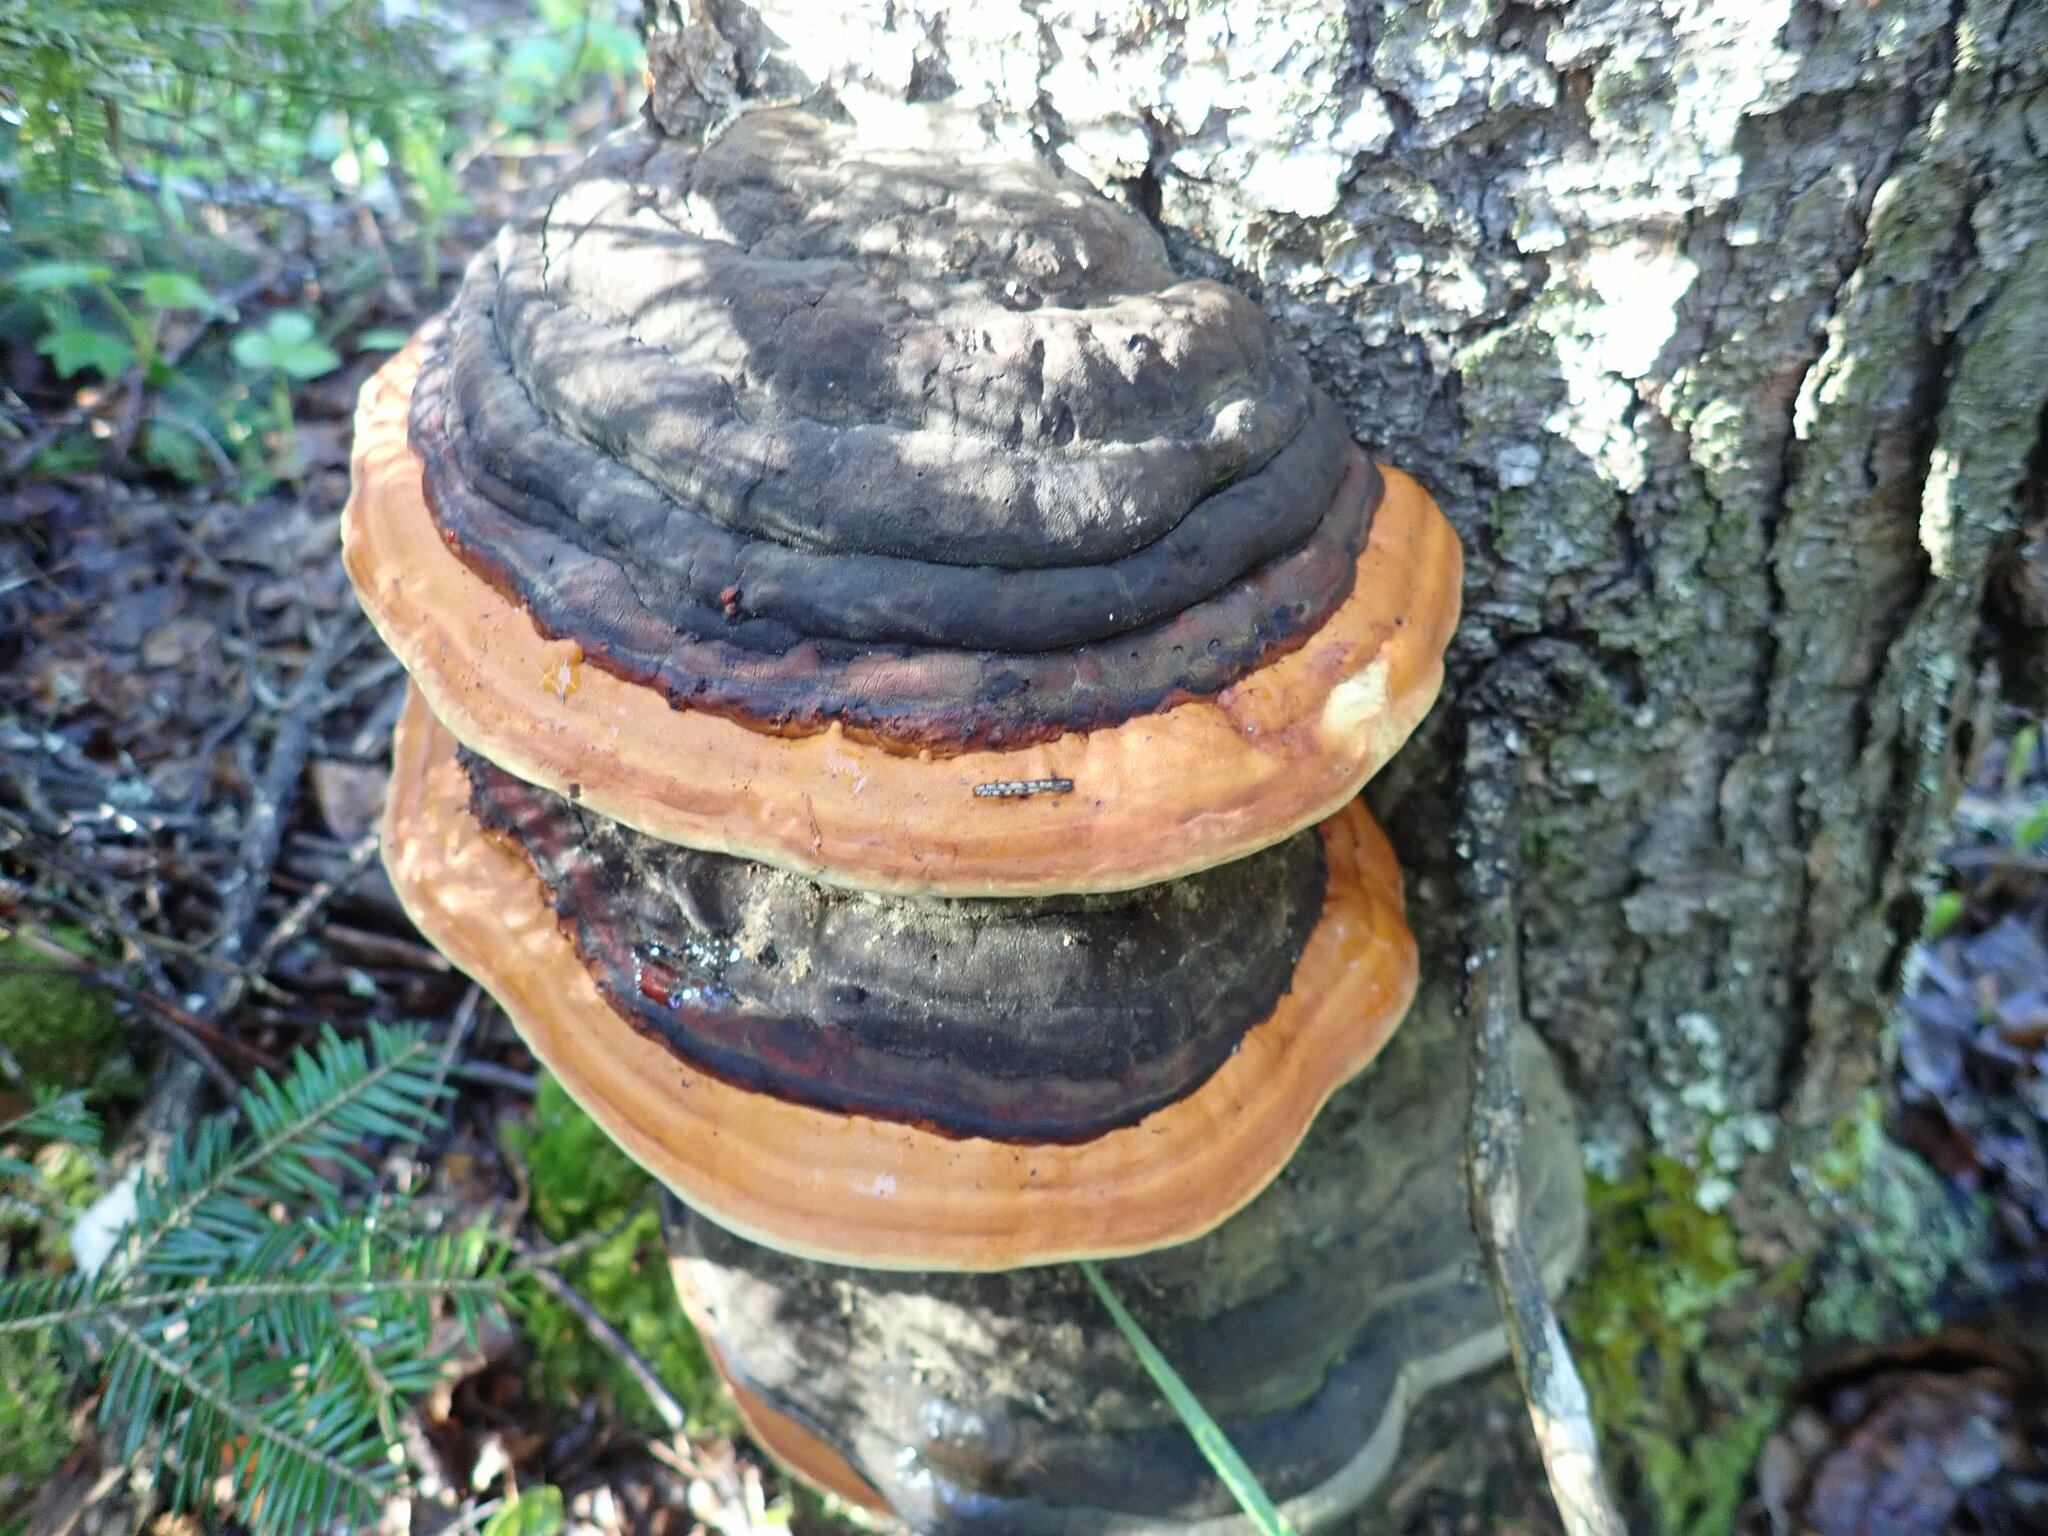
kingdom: Fungi
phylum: Basidiomycota
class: Agaricomycetes
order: Polyporales
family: Fomitopsidaceae
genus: Fomitopsis
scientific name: Fomitopsis mounceae
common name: Northern red belt
